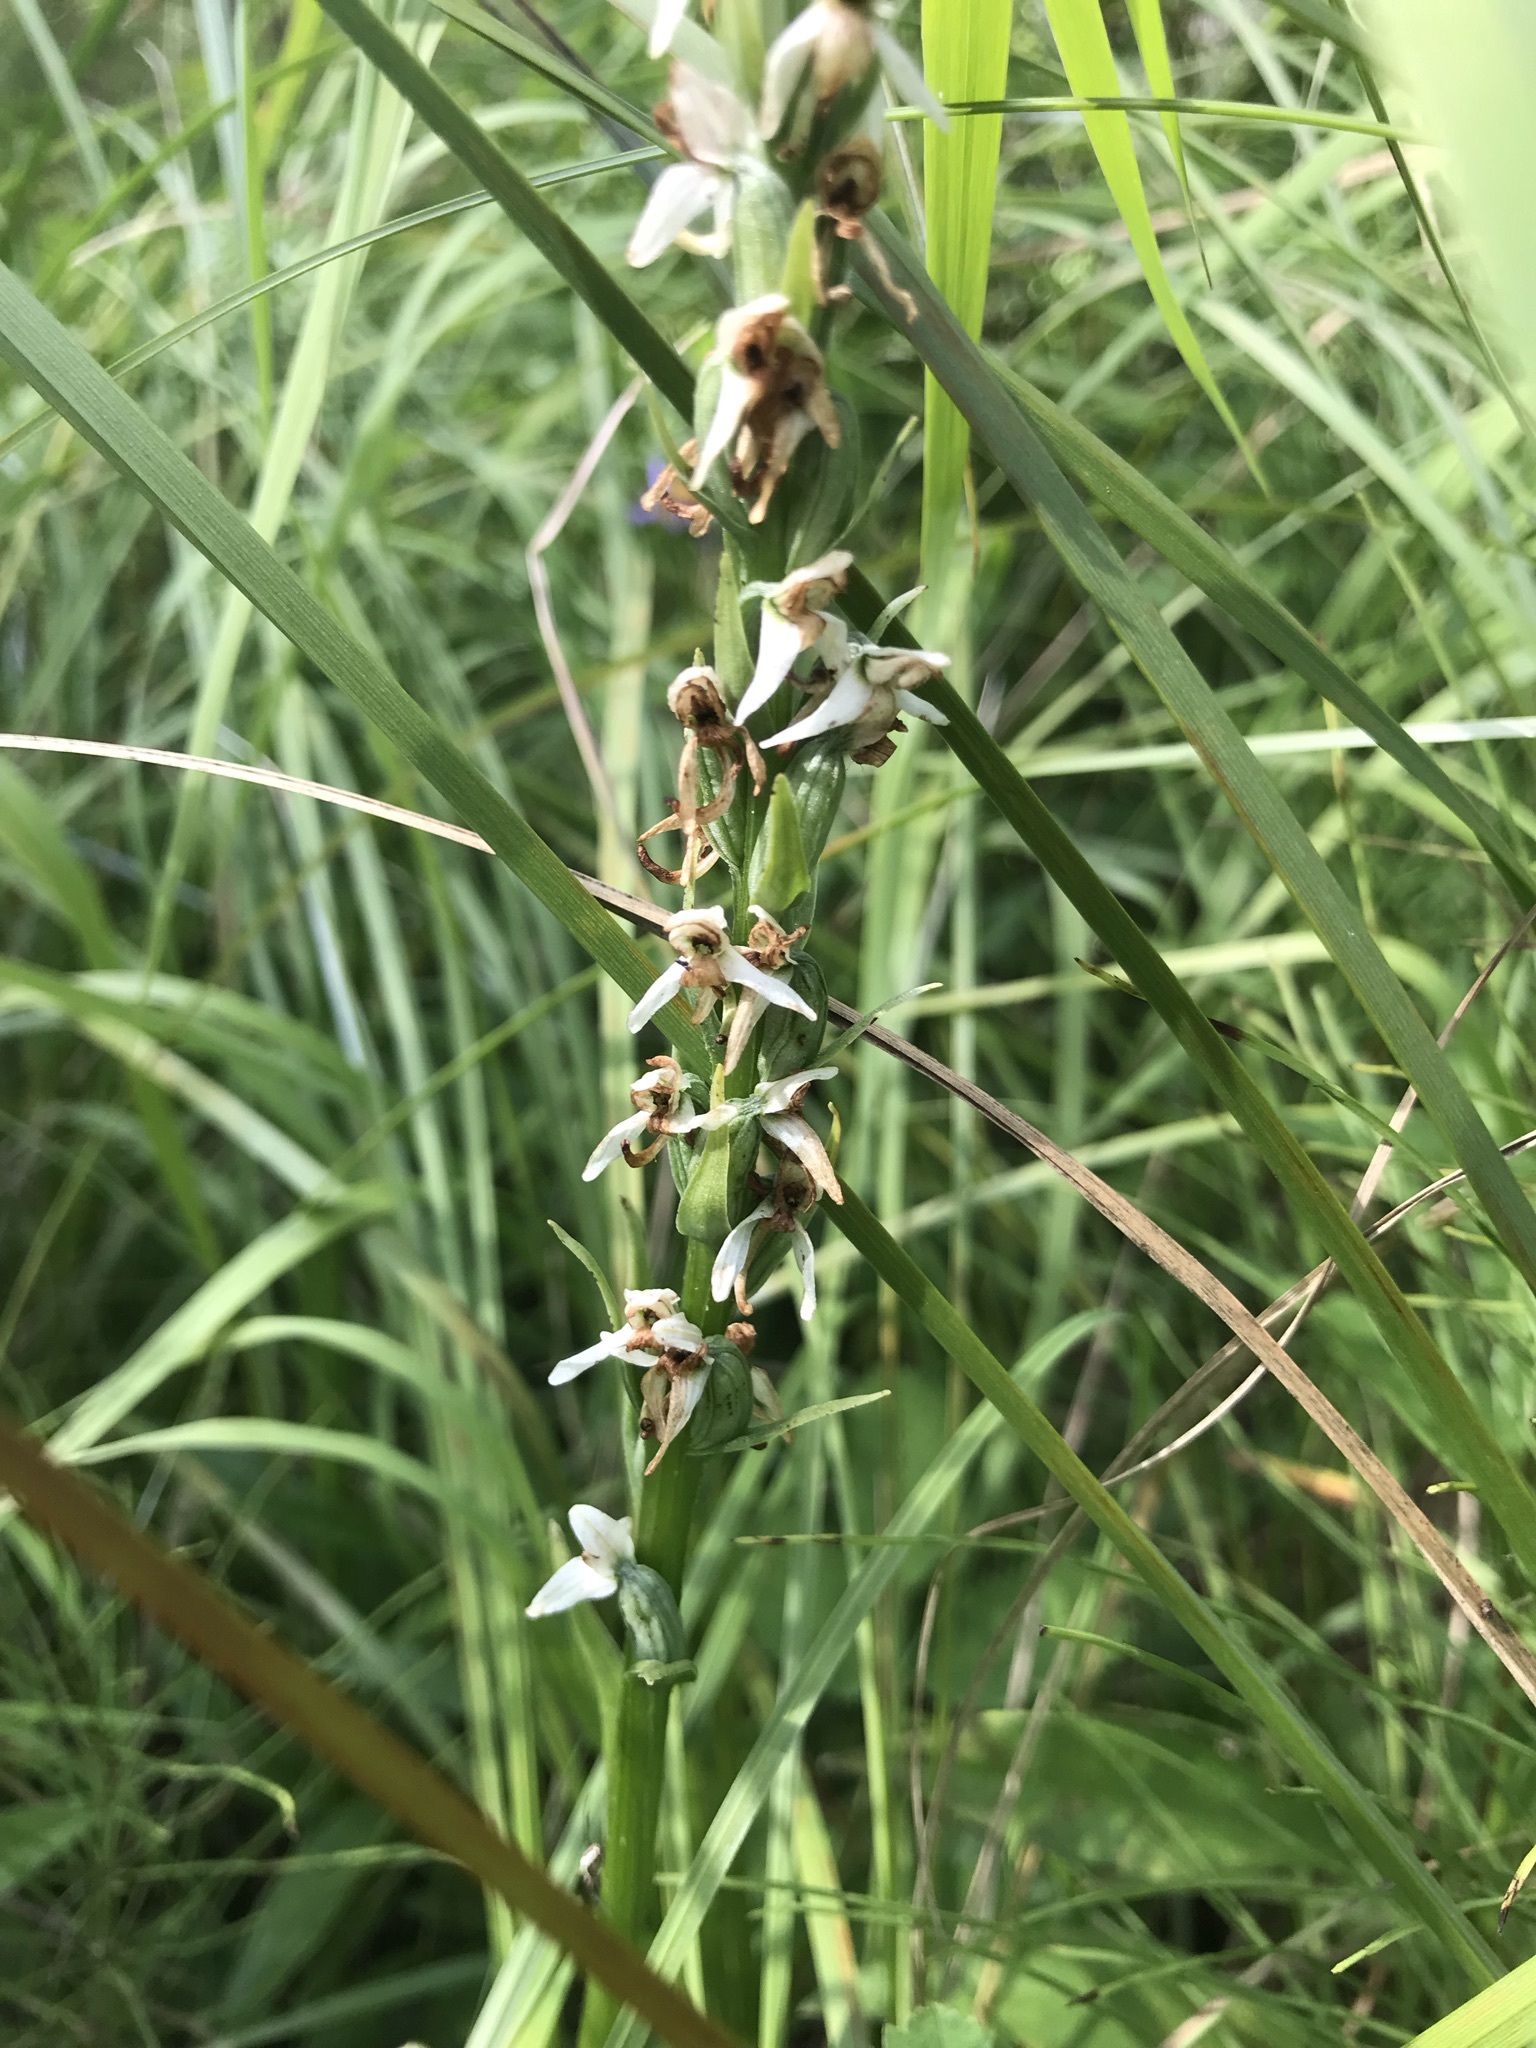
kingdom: Plantae
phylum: Tracheophyta
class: Liliopsida
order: Asparagales
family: Orchidaceae
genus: Platanthera
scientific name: Platanthera dilatata
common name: Bog candles
